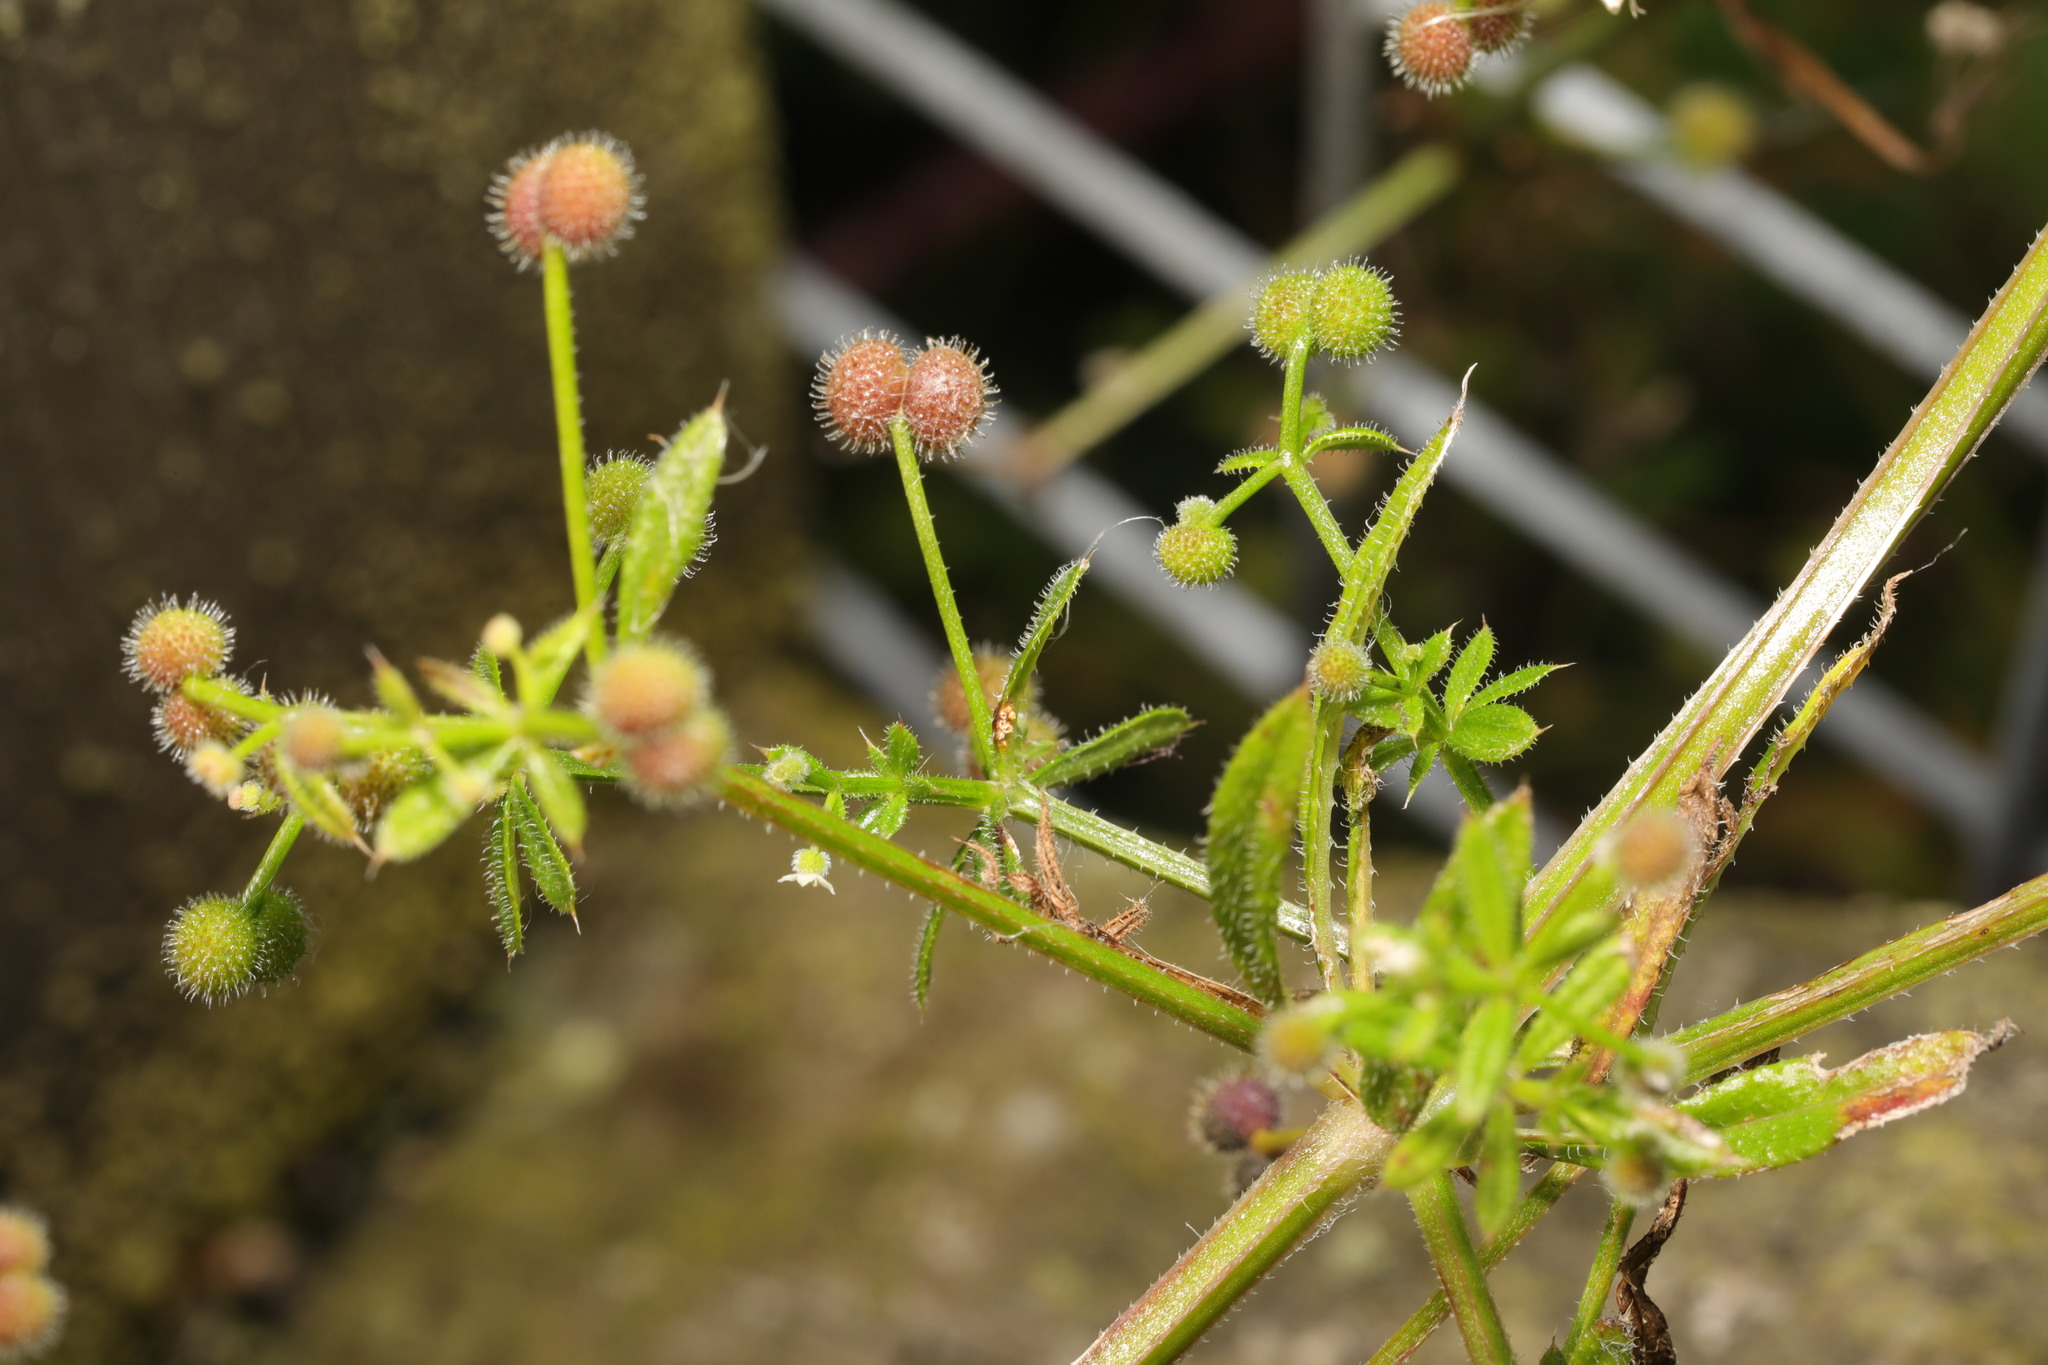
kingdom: Plantae
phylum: Tracheophyta
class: Magnoliopsida
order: Gentianales
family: Rubiaceae
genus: Galium
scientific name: Galium aparine
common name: Cleavers
